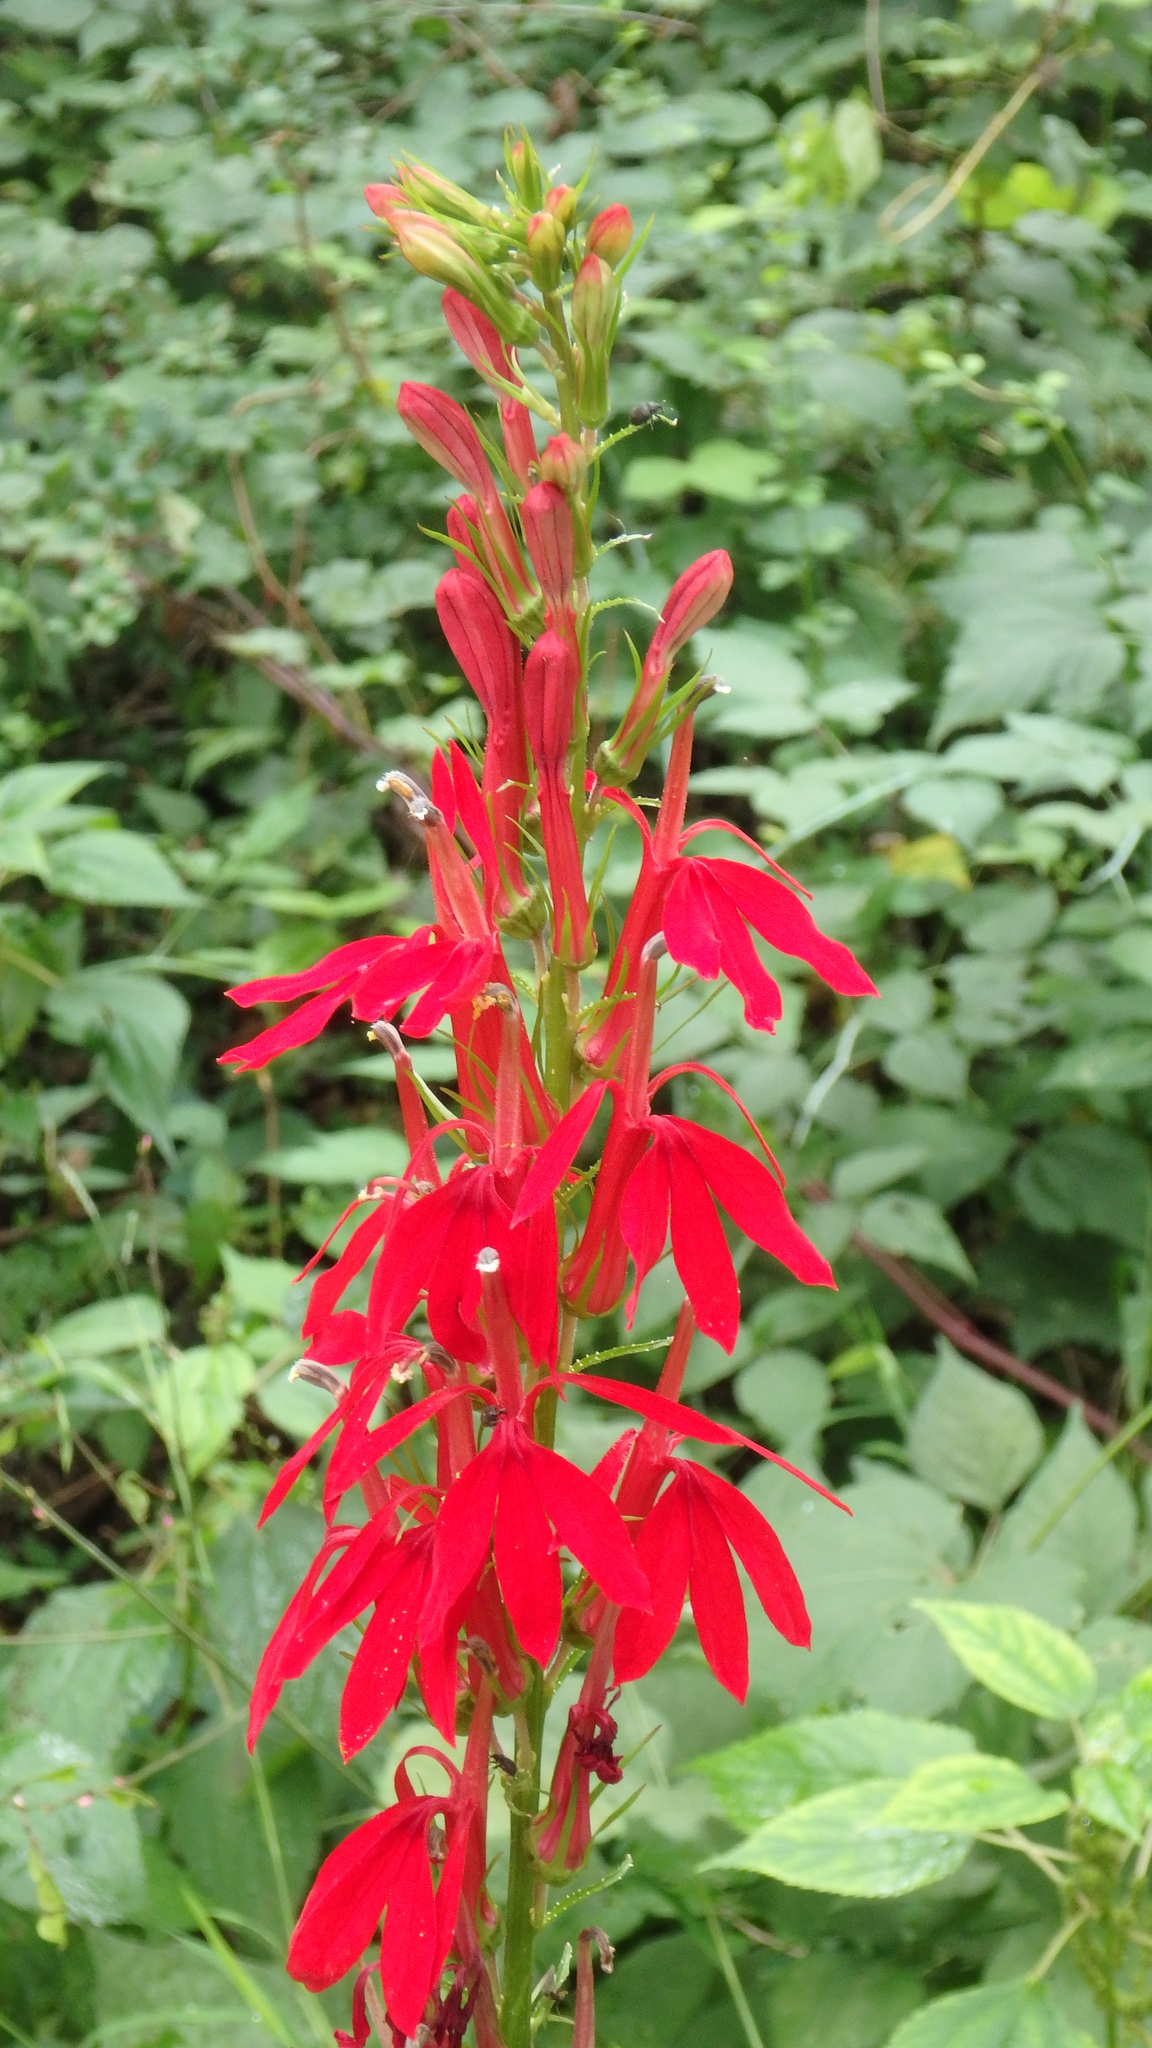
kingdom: Plantae
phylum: Tracheophyta
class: Magnoliopsida
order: Asterales
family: Campanulaceae
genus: Lobelia
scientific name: Lobelia cardinalis
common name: Cardinal flower
